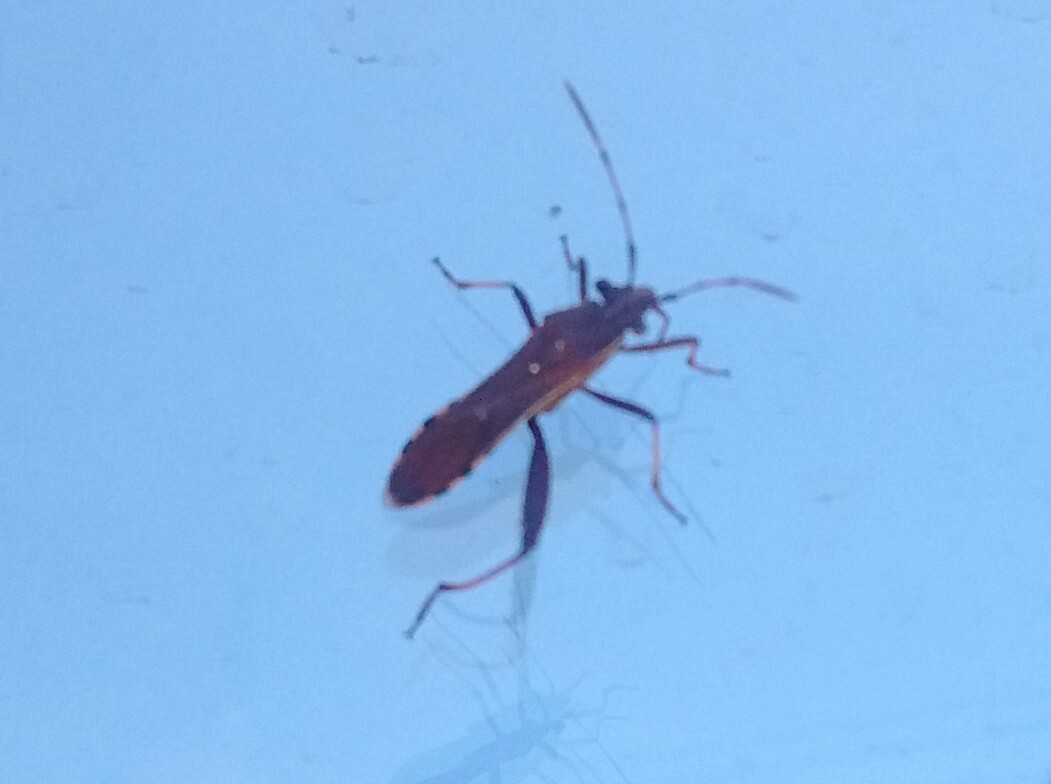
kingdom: Animalia
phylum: Arthropoda
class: Insecta
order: Hemiptera
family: Alydidae
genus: Camptopus
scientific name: Camptopus lateralis
